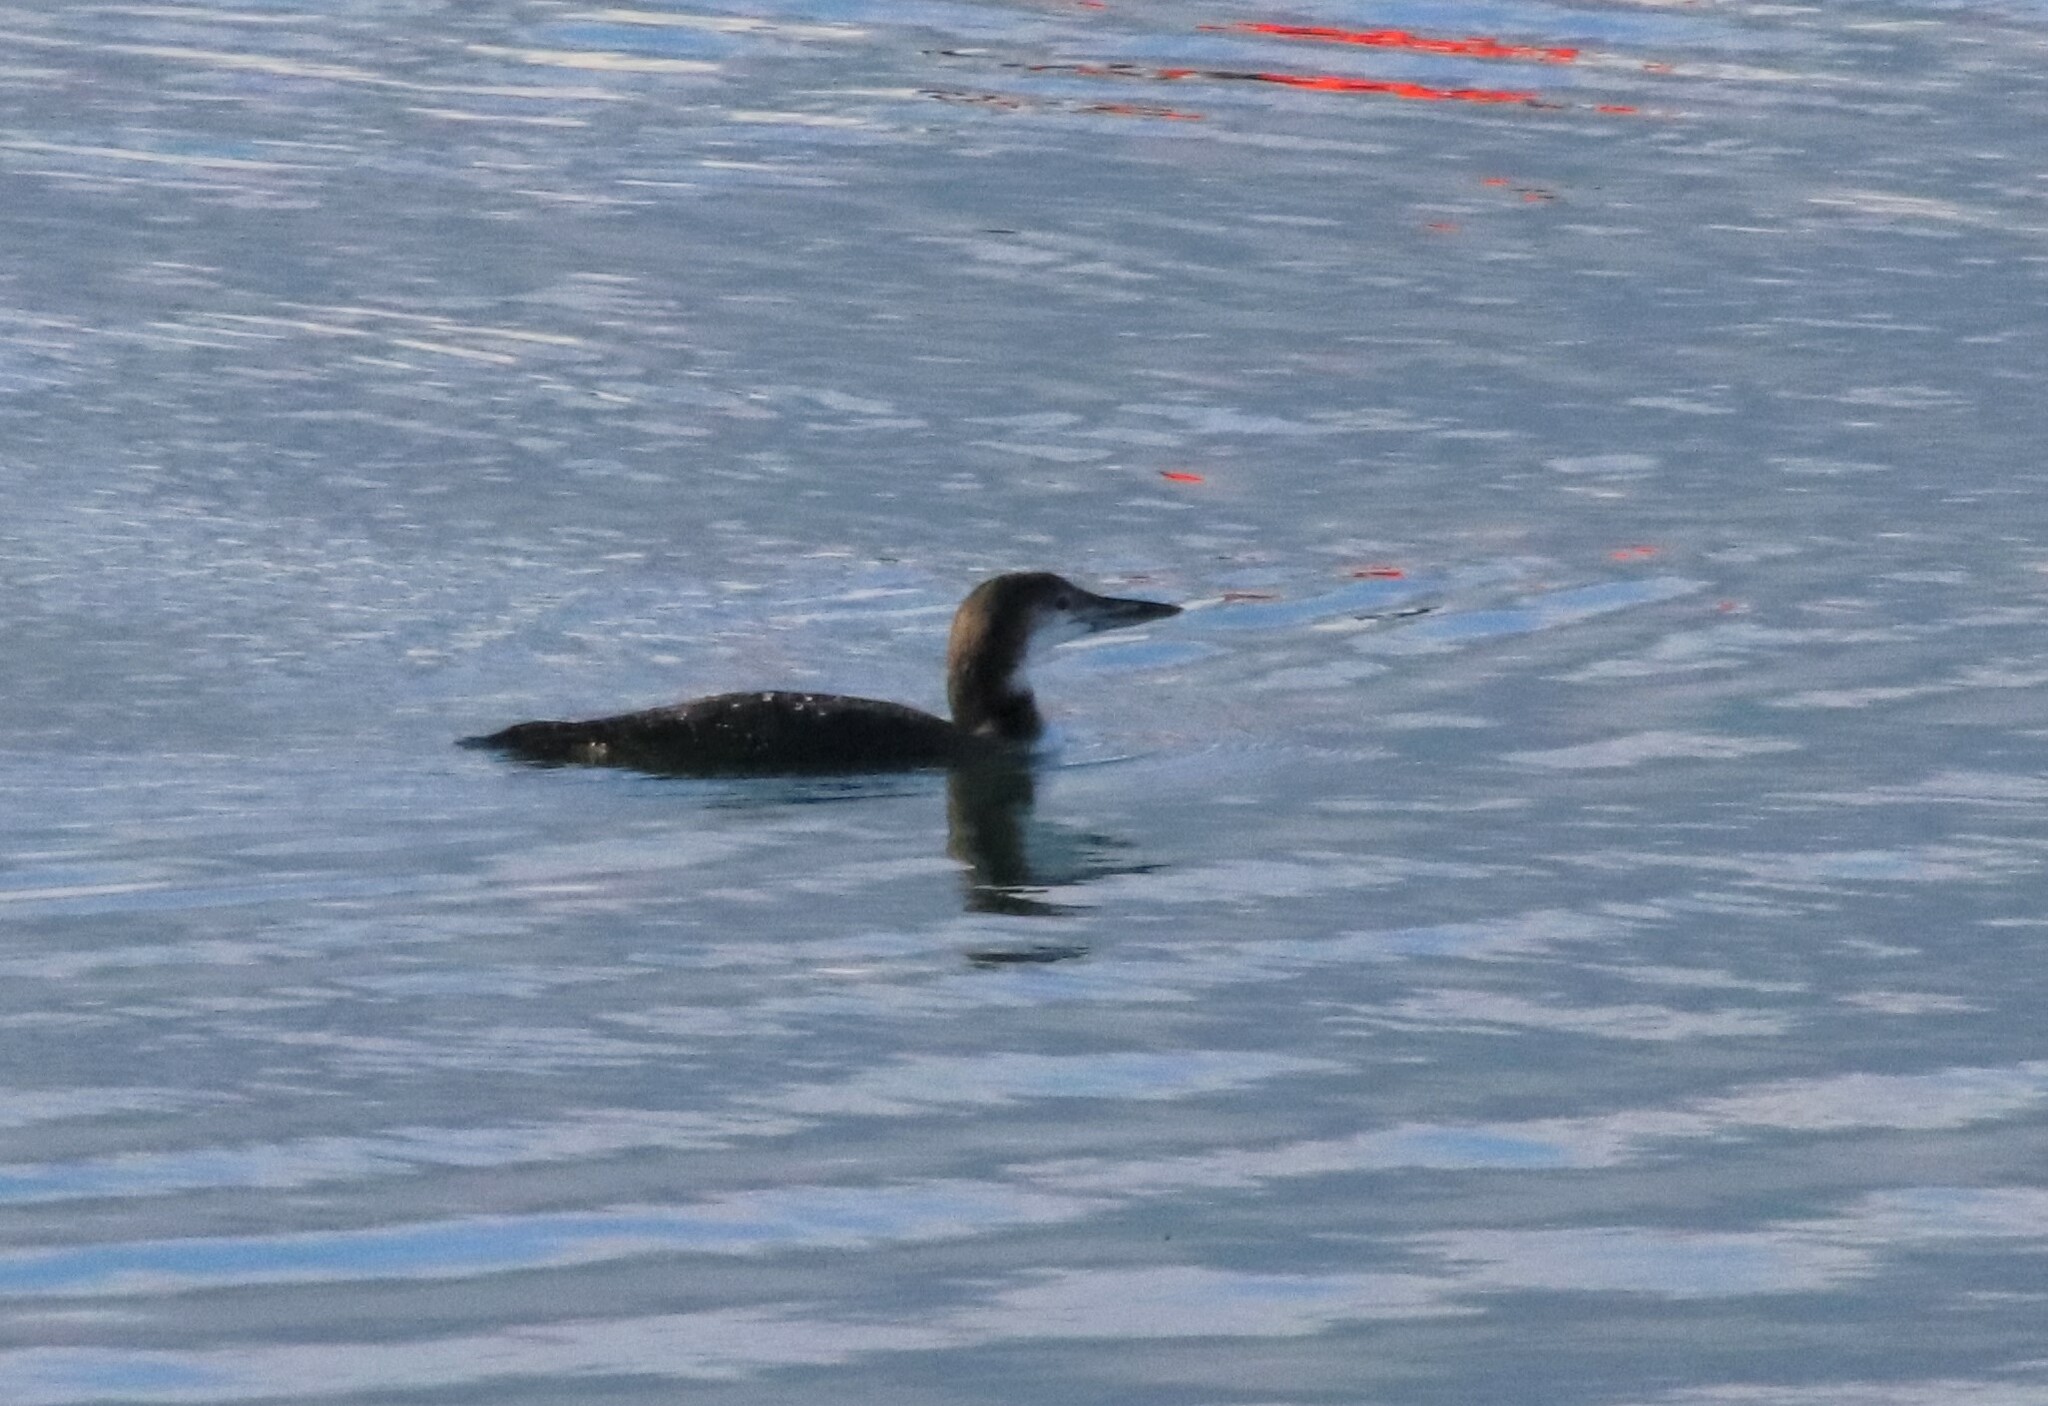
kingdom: Animalia
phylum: Chordata
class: Aves
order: Gaviiformes
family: Gaviidae
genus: Gavia
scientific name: Gavia immer
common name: Common loon
